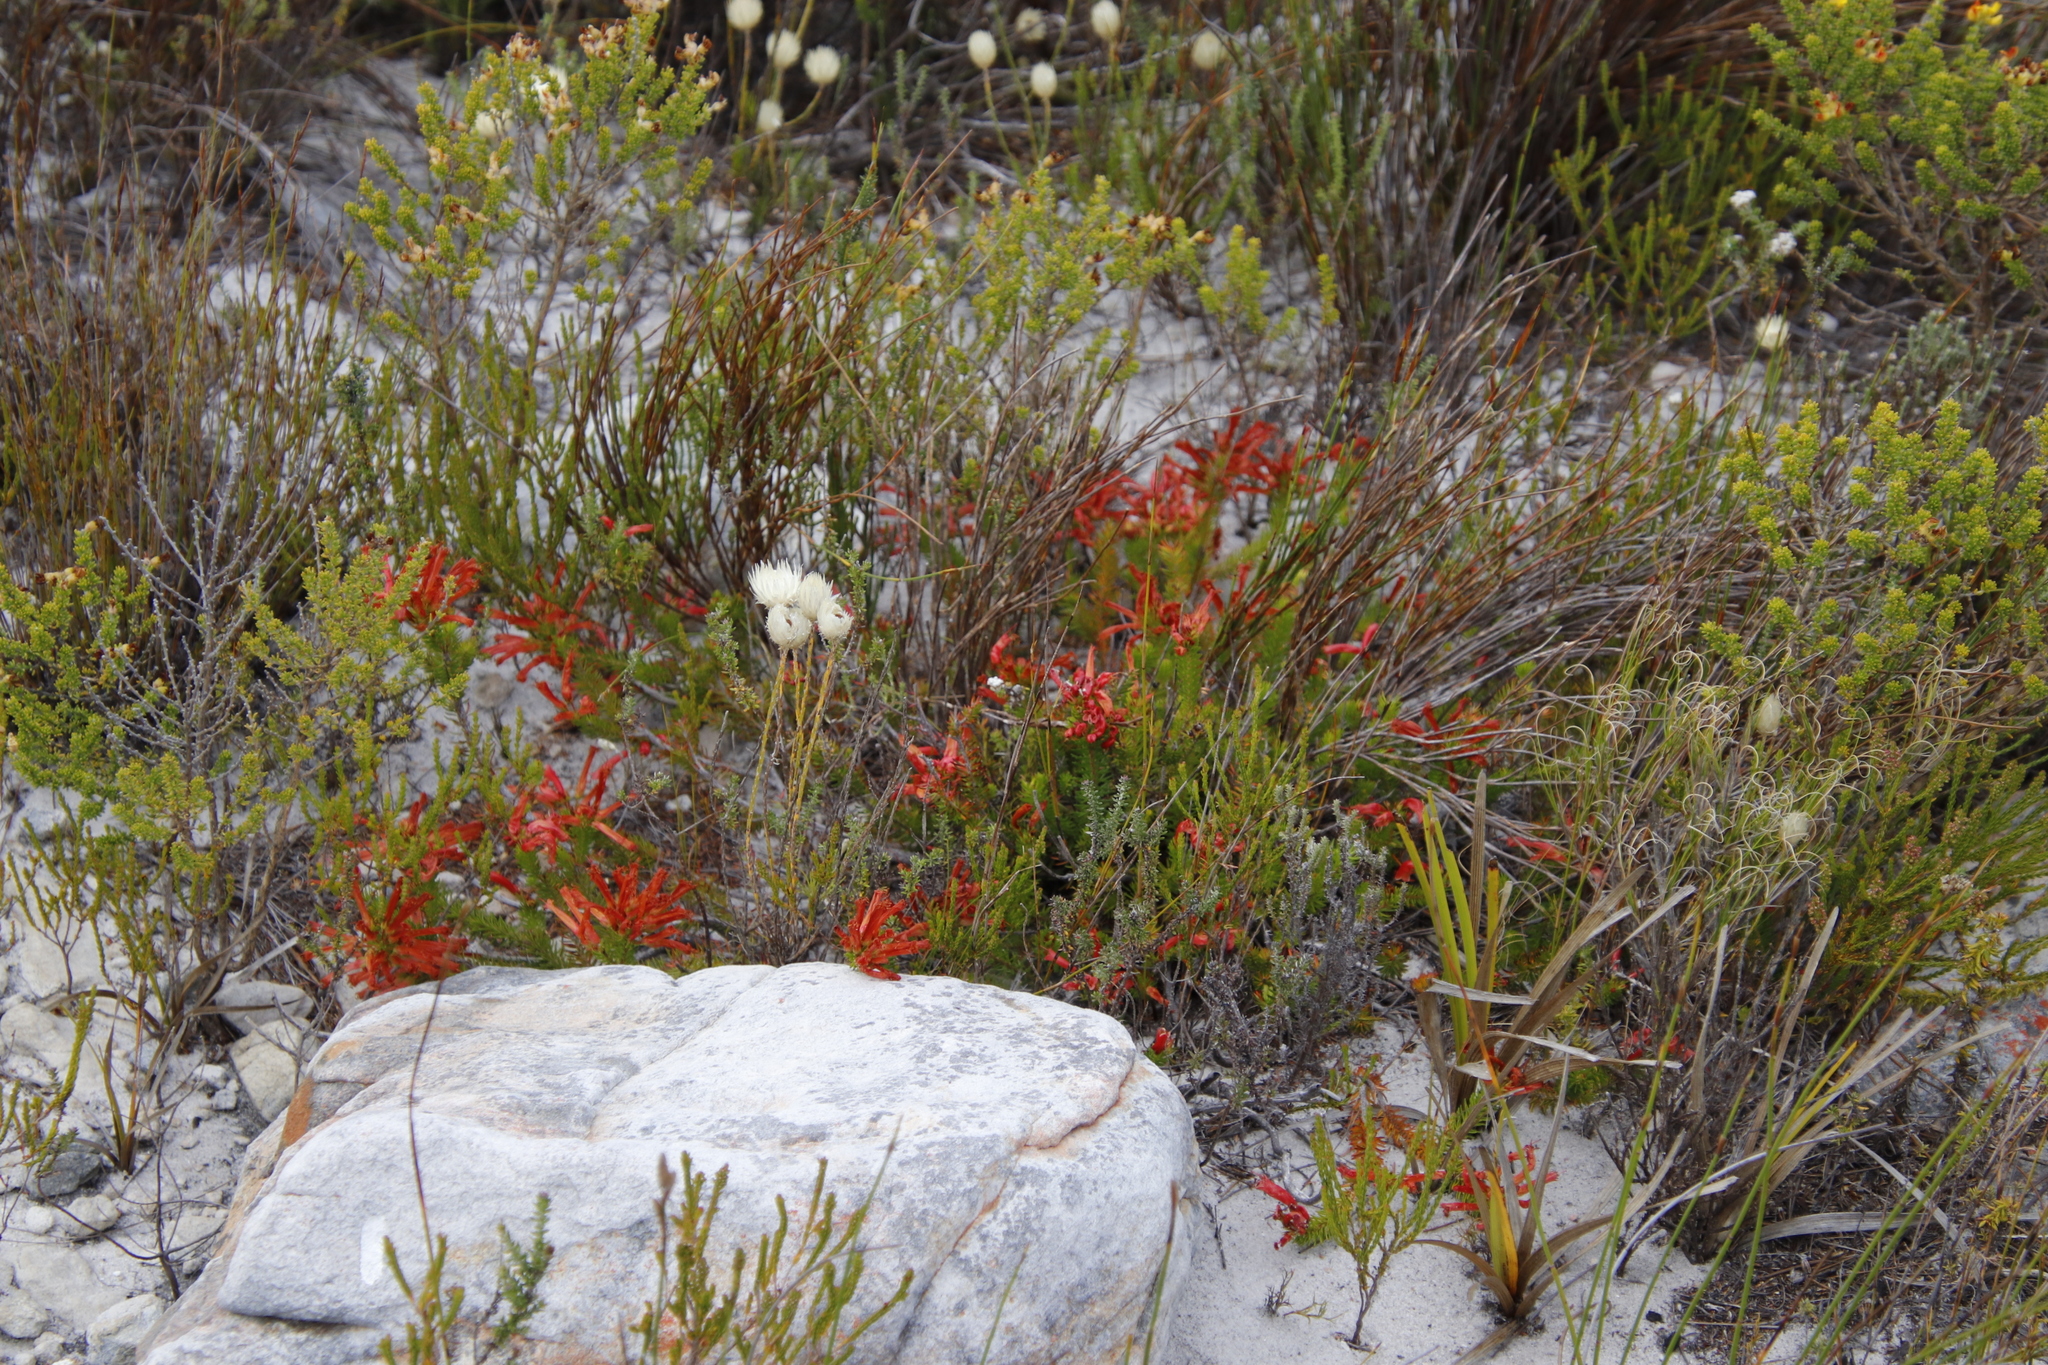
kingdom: Plantae
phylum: Tracheophyta
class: Magnoliopsida
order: Ericales
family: Ericaceae
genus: Erica
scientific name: Erica nevillei
